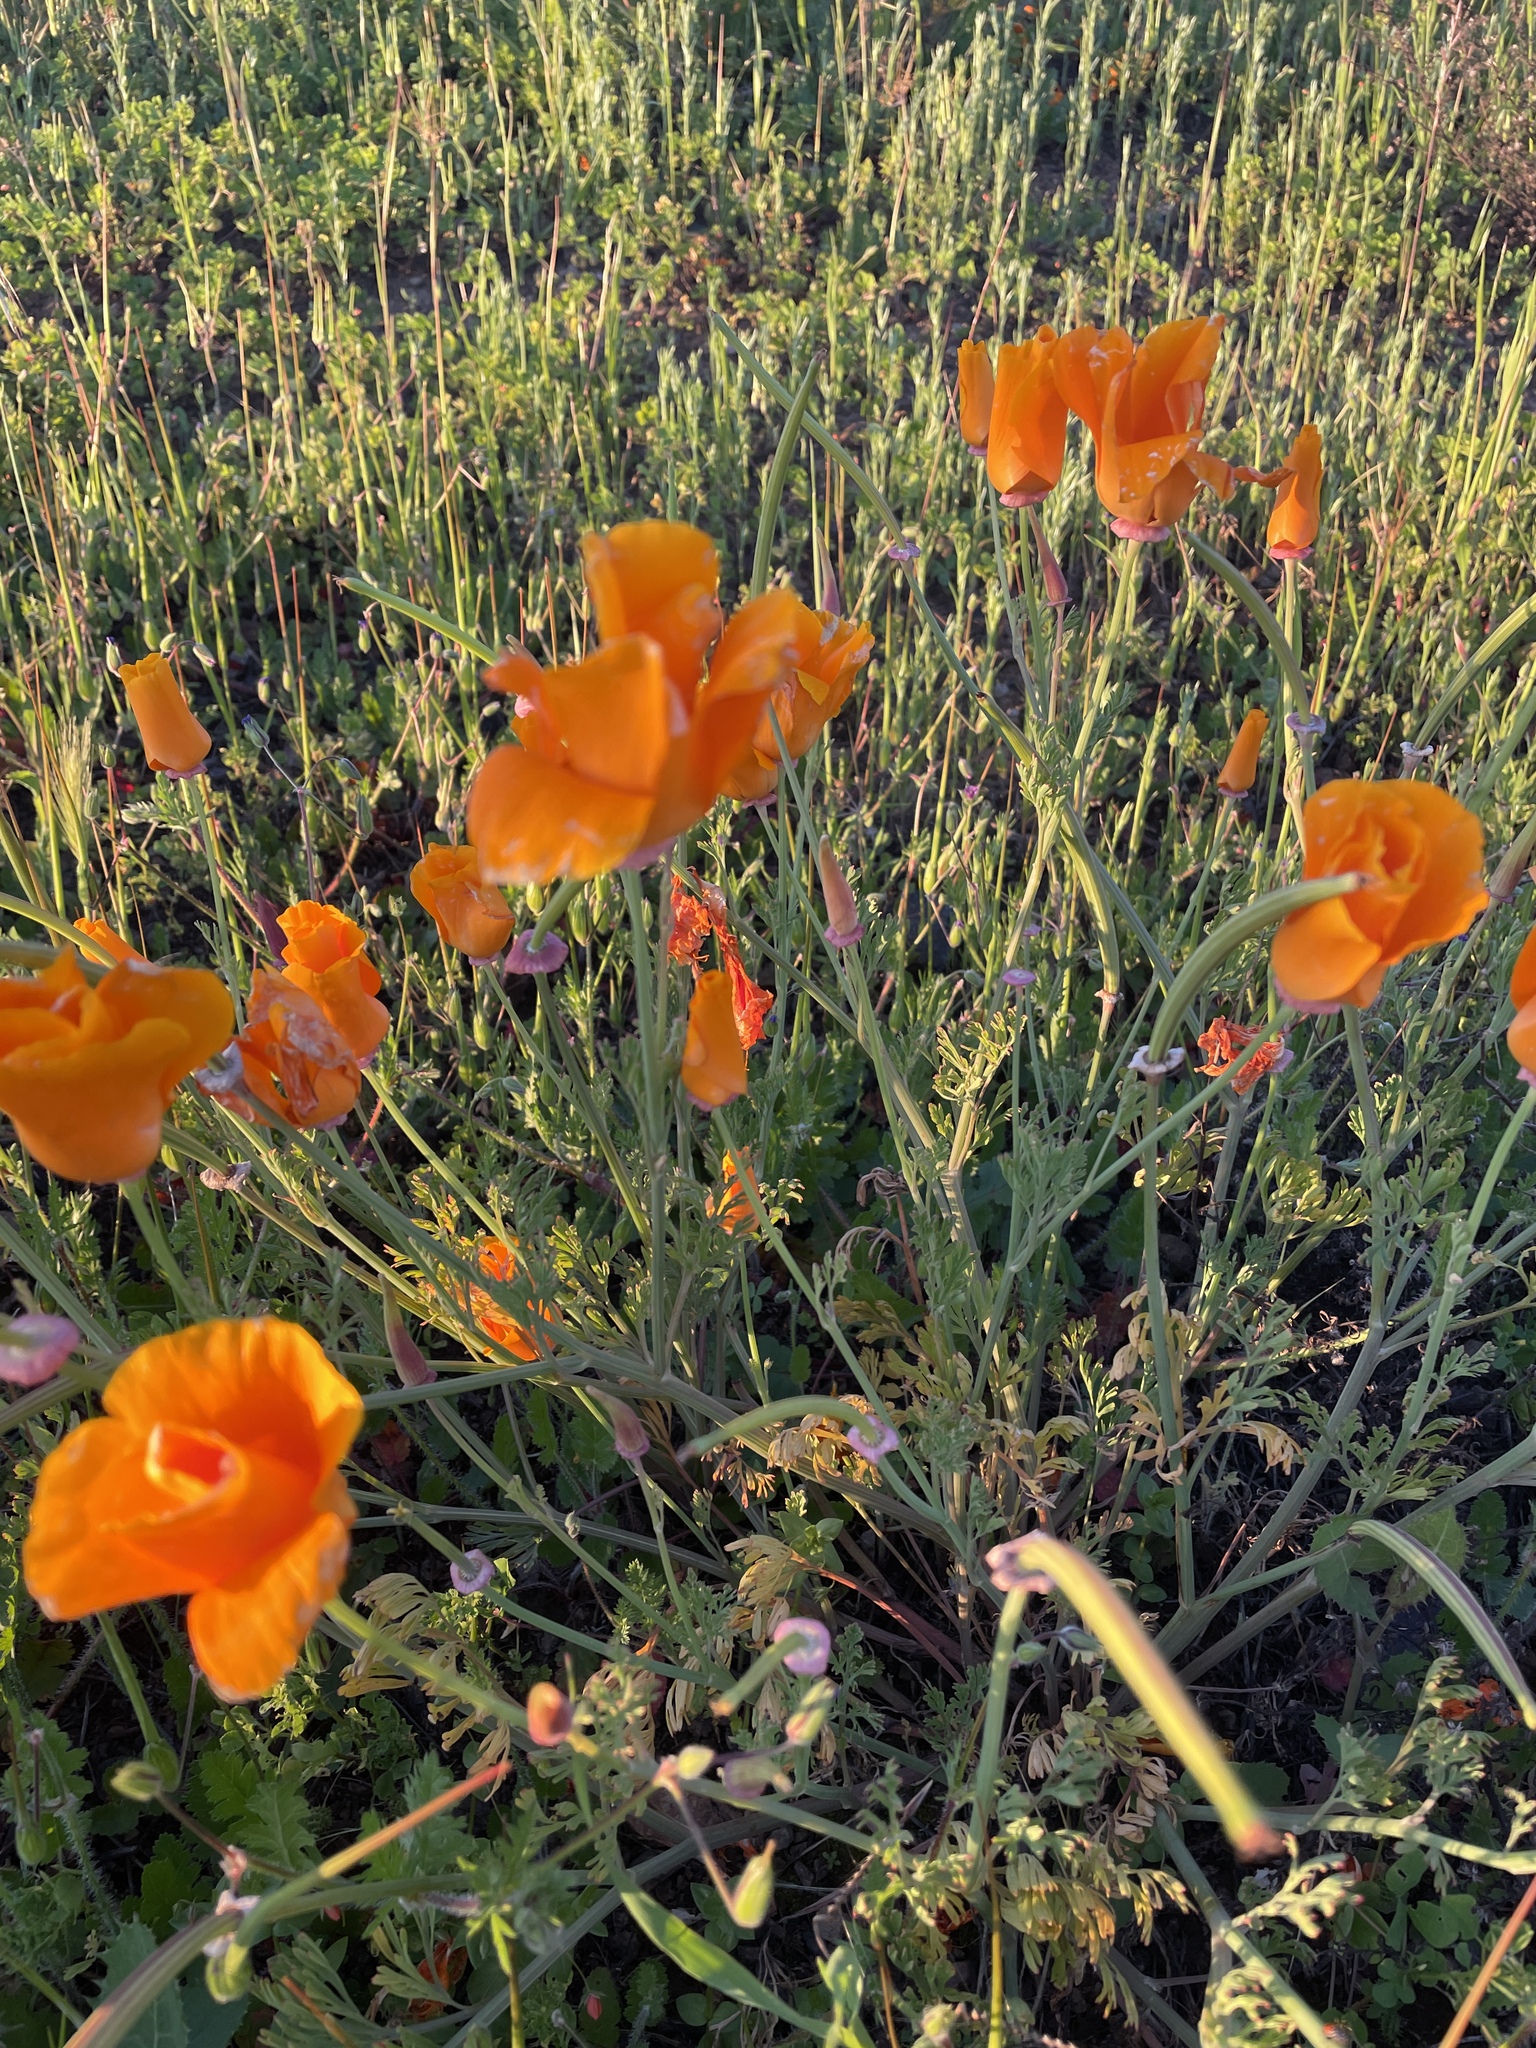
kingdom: Plantae
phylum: Tracheophyta
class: Magnoliopsida
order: Ranunculales
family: Papaveraceae
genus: Eschscholzia
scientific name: Eschscholzia californica
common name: California poppy
